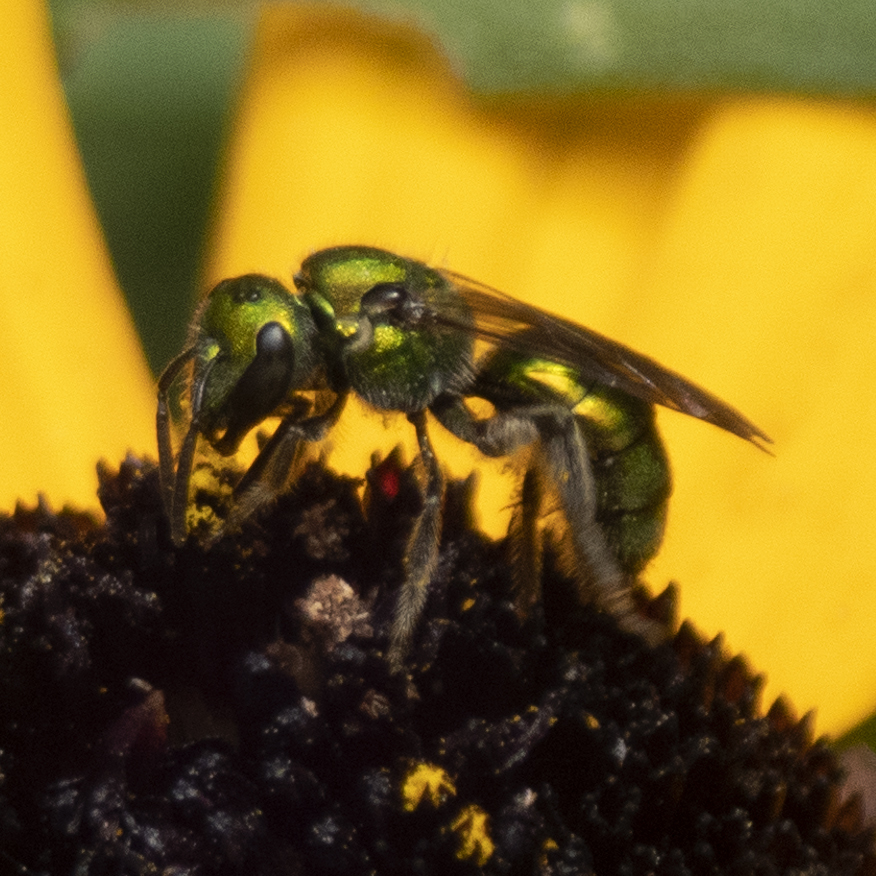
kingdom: Animalia
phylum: Arthropoda
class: Insecta
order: Hymenoptera
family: Halictidae
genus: Augochlora
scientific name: Augochlora pura
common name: Pure green sweat bee
